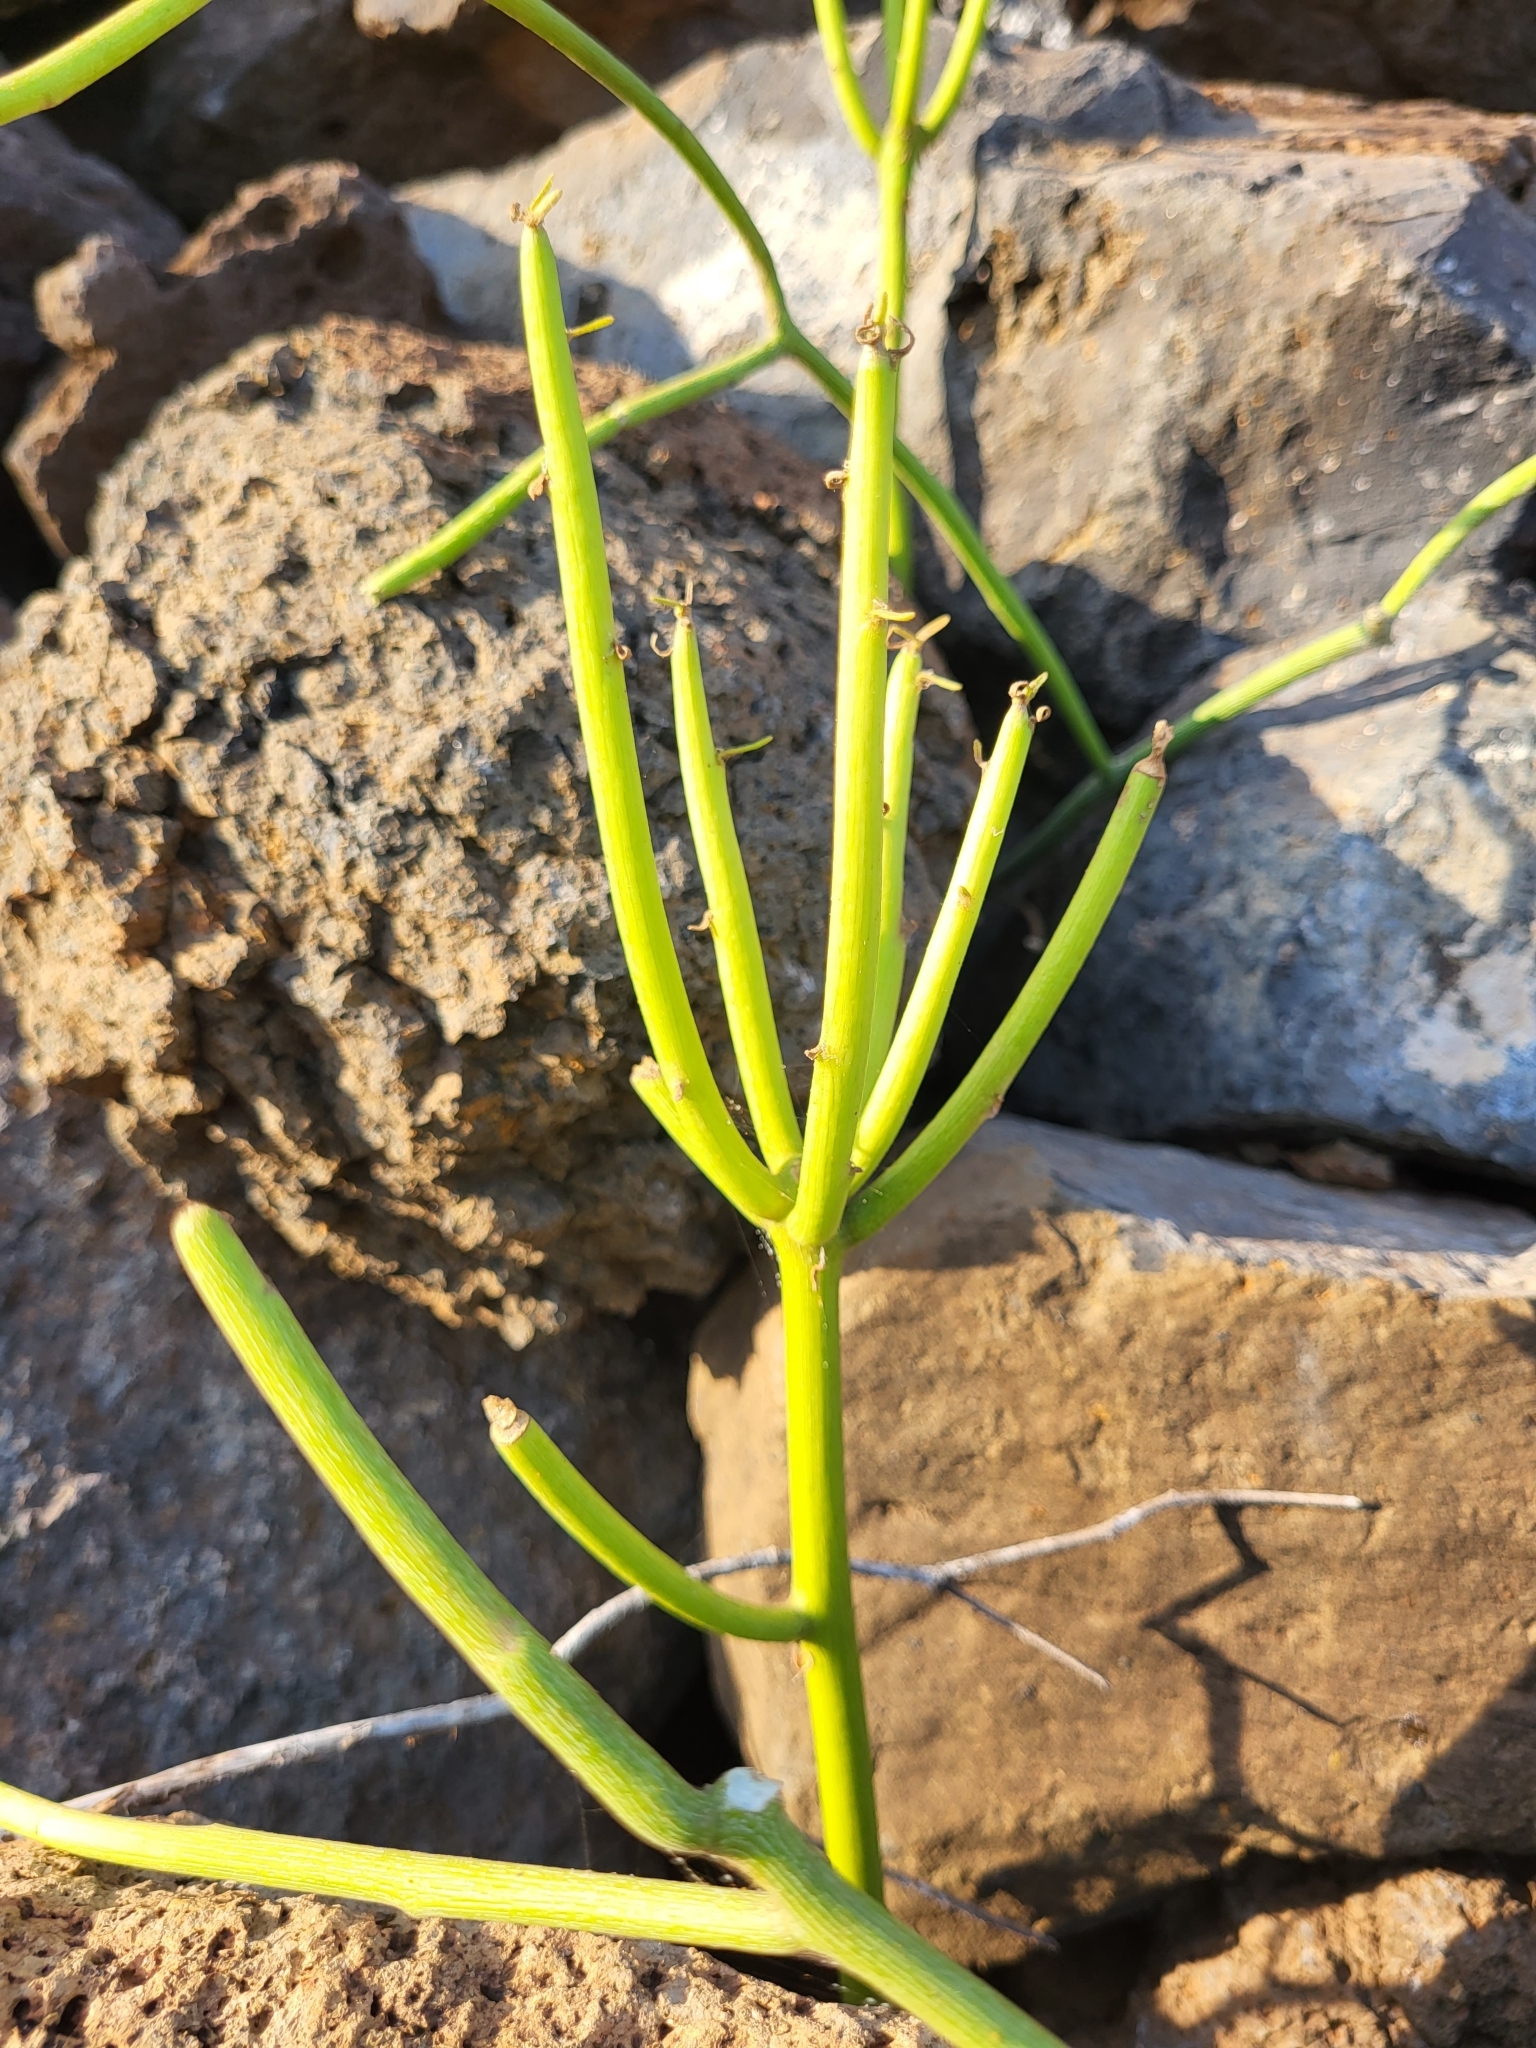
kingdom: Plantae
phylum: Tracheophyta
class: Magnoliopsida
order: Malpighiales
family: Euphorbiaceae
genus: Euphorbia
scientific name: Euphorbia tirucalli
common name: Indiantree spurge
